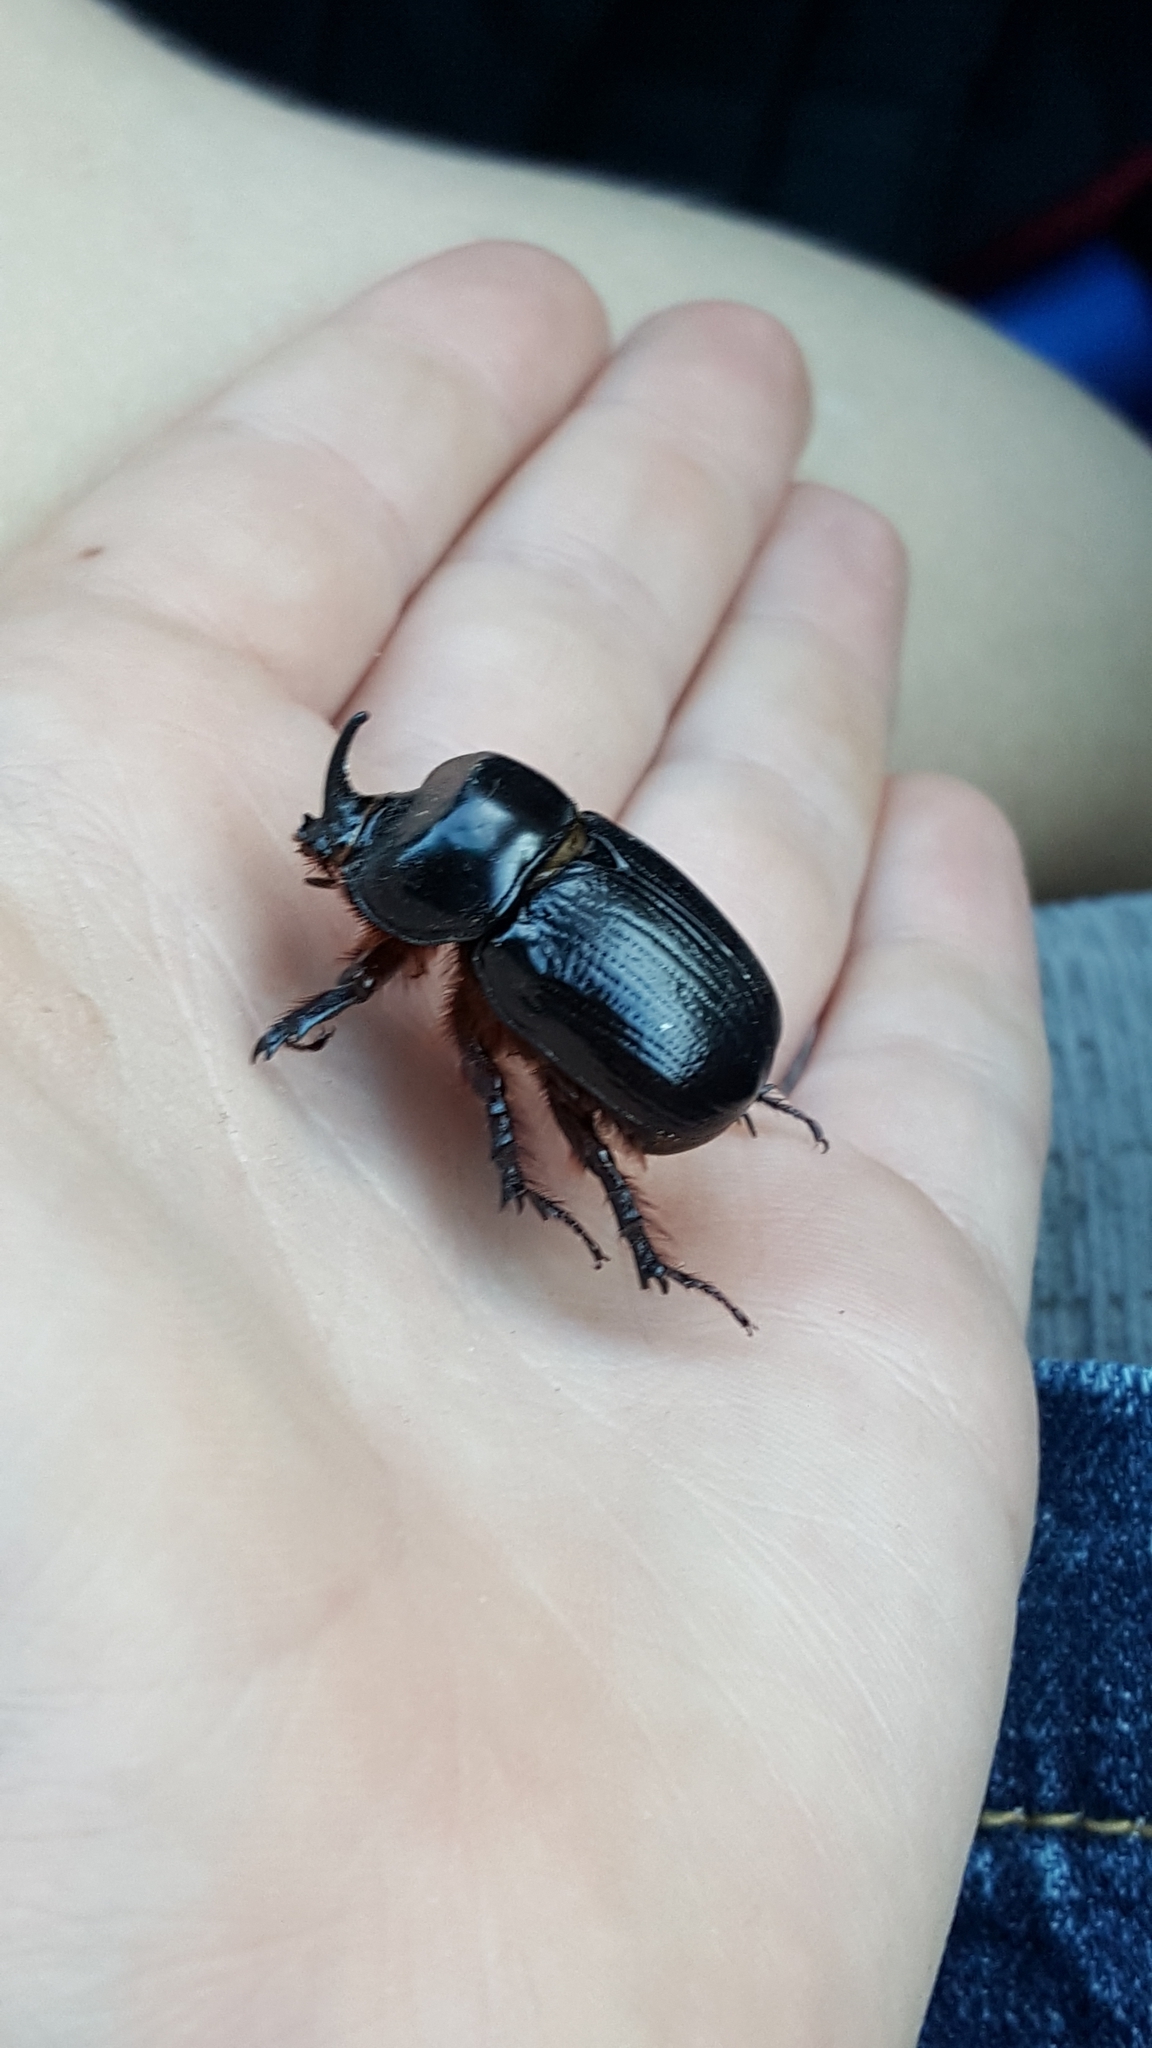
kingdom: Animalia
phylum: Arthropoda
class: Insecta
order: Coleoptera
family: Scarabaeidae
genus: Xyloryctes
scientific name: Xyloryctes jamaicensis
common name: Eastern rhinoceros beetle
